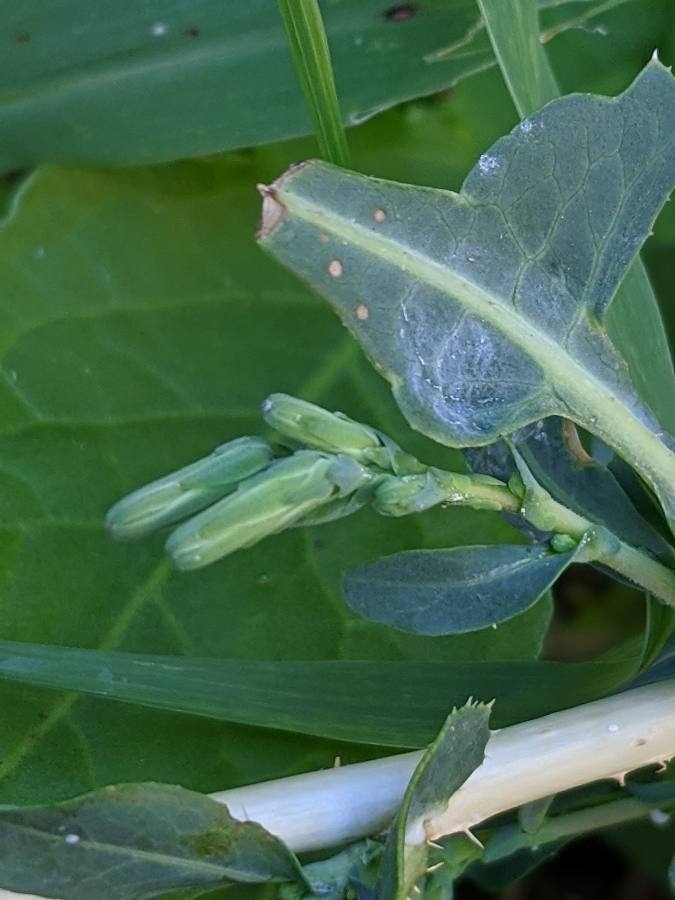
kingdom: Plantae
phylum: Tracheophyta
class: Magnoliopsida
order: Asterales
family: Asteraceae
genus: Lactuca
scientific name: Lactuca serriola
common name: Prickly lettuce
